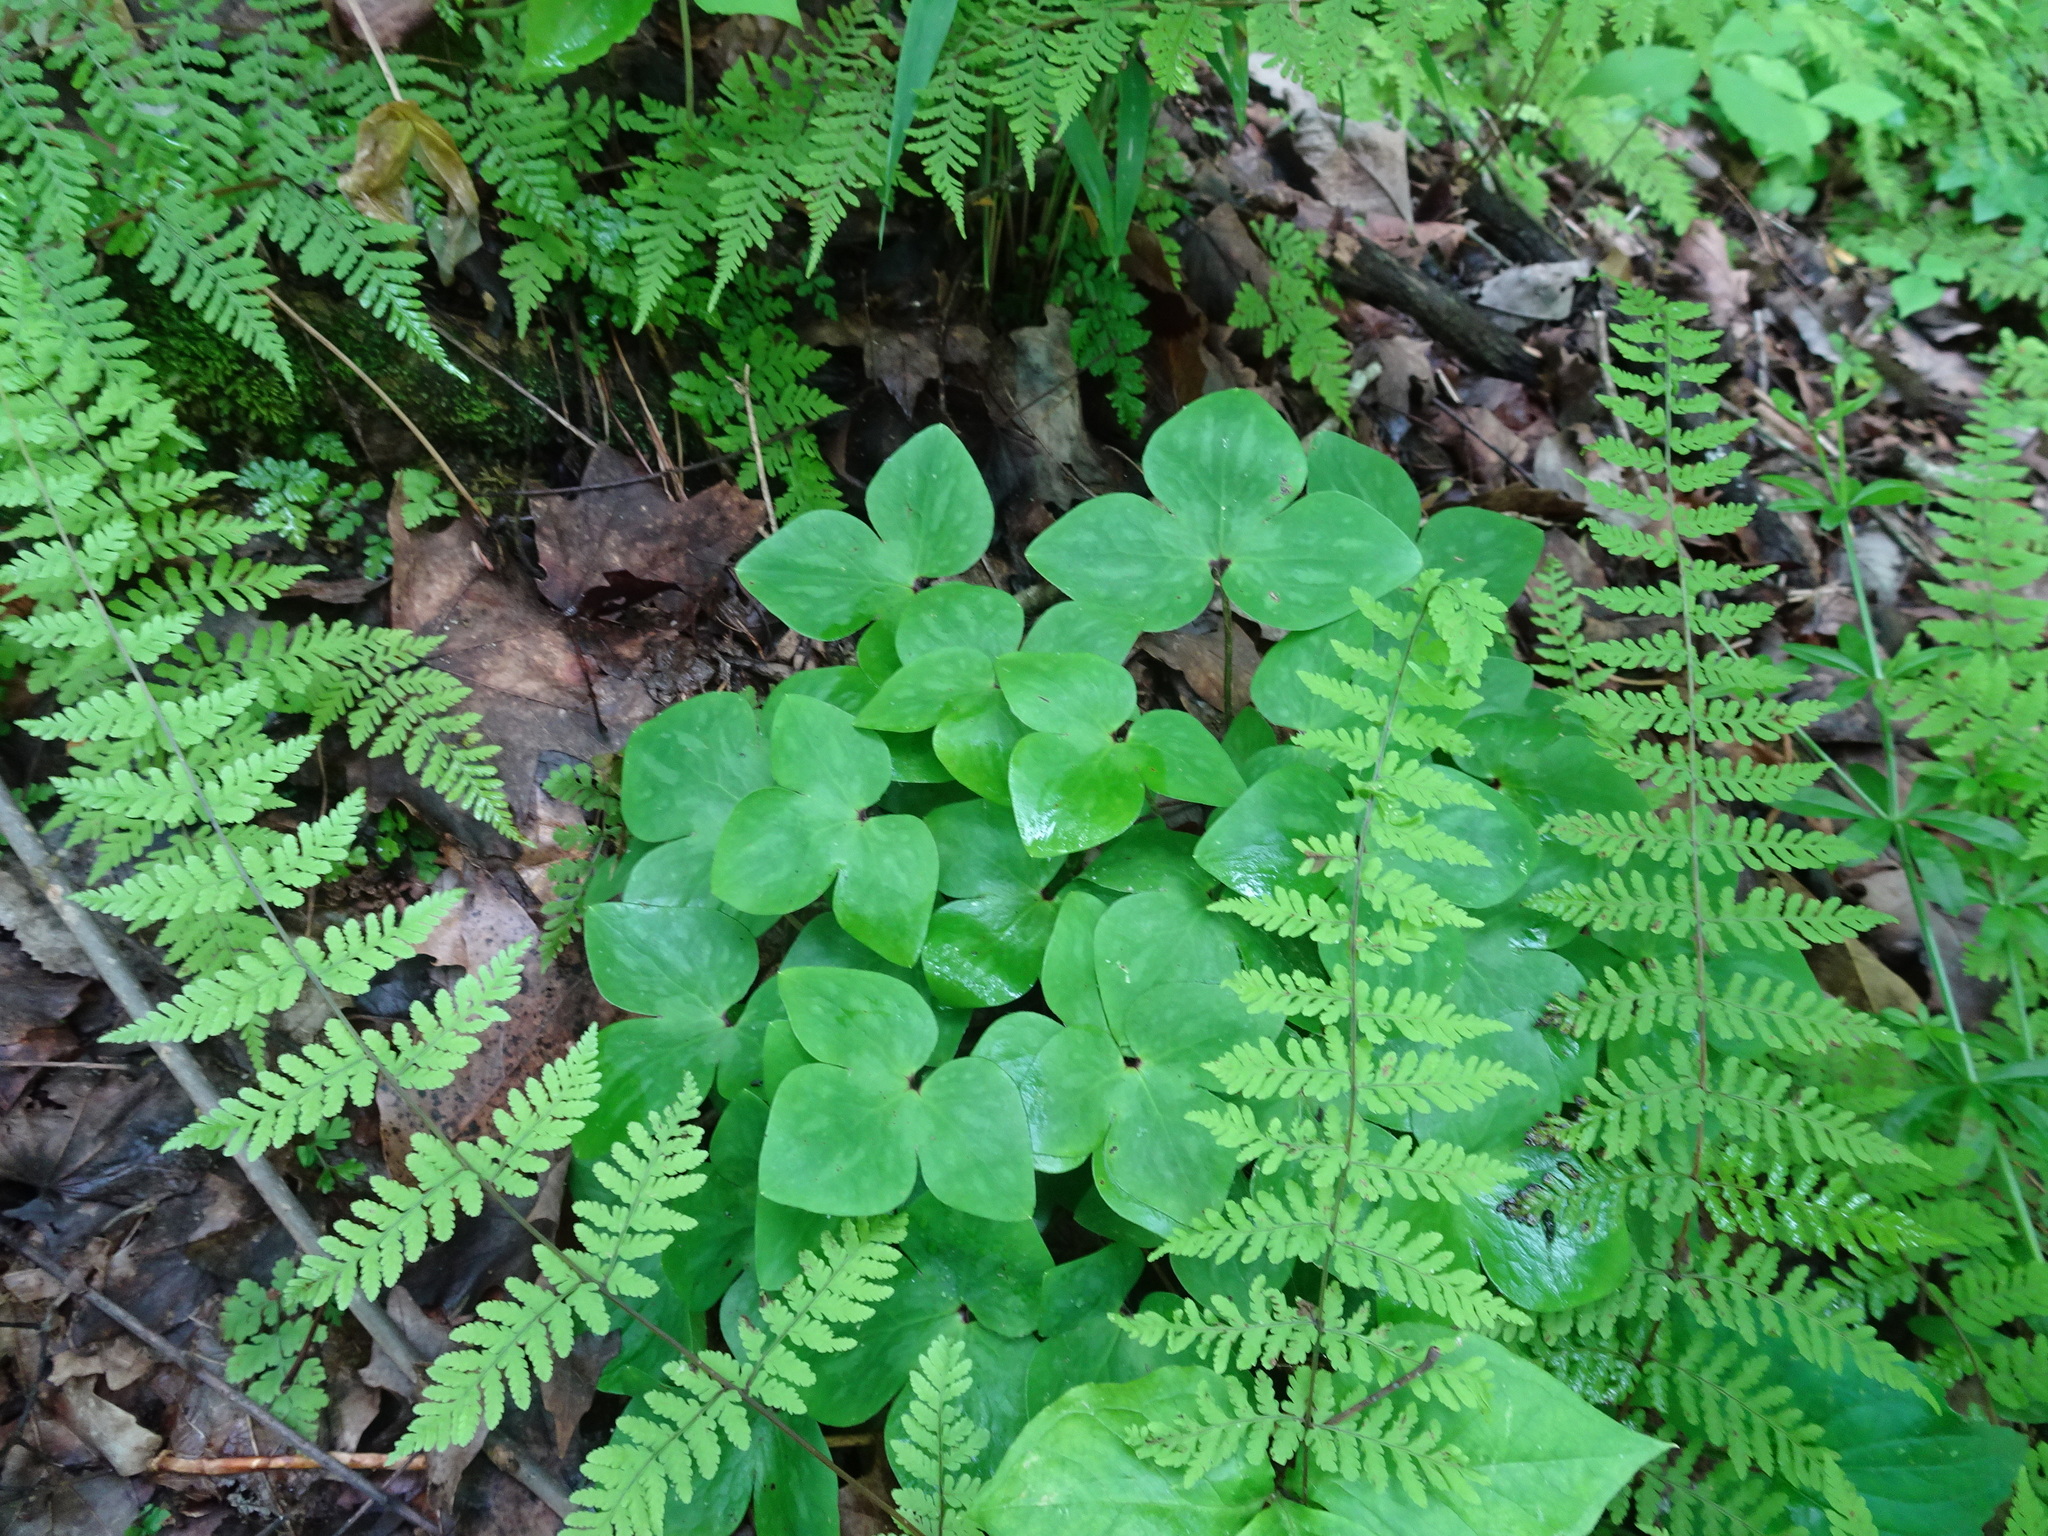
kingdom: Plantae
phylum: Tracheophyta
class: Magnoliopsida
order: Ranunculales
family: Ranunculaceae
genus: Hepatica
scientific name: Hepatica acutiloba
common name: Sharp-lobed hepatica
